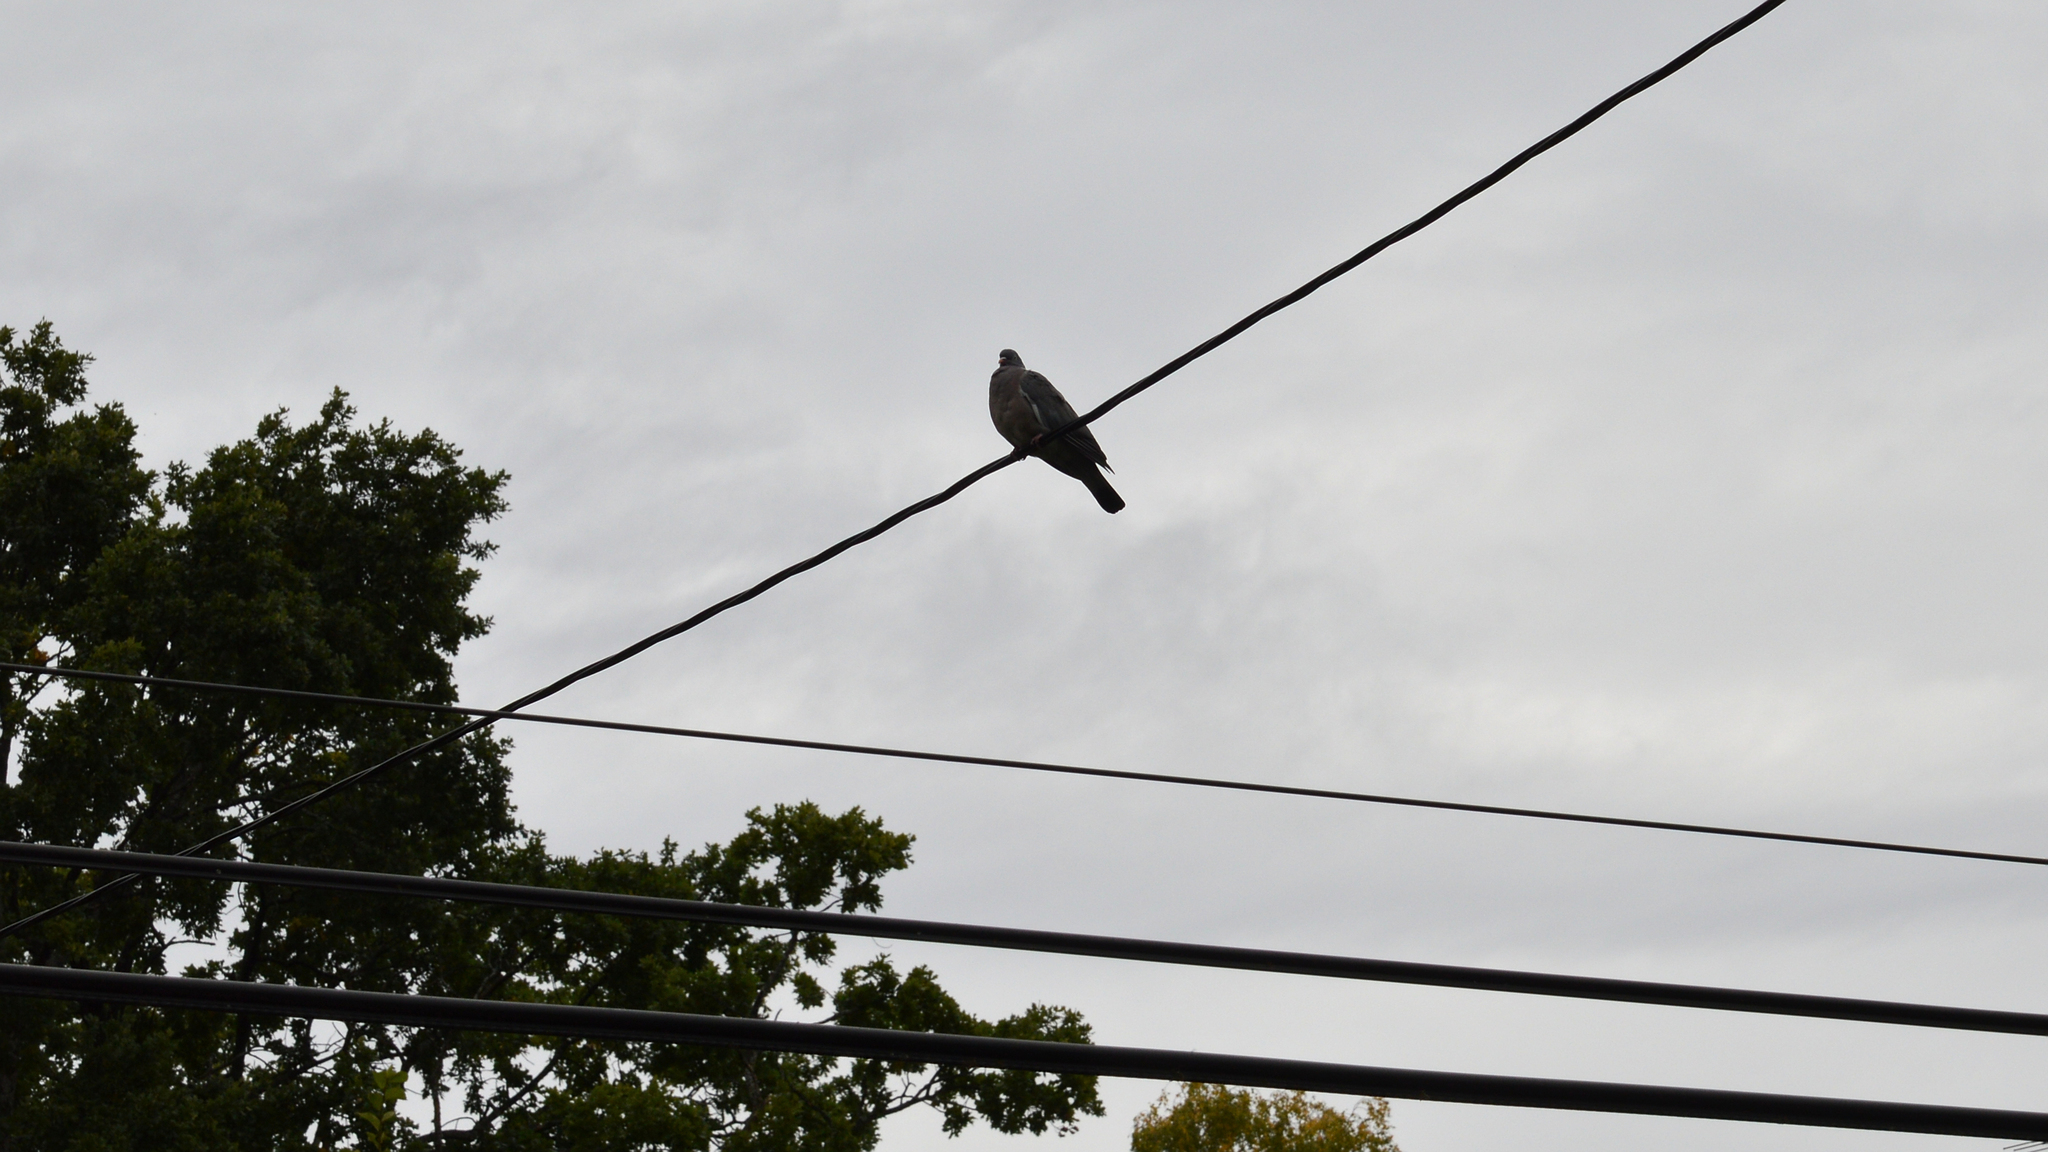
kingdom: Animalia
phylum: Chordata
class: Aves
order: Columbiformes
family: Columbidae
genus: Columba
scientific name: Columba palumbus
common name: Common wood pigeon
